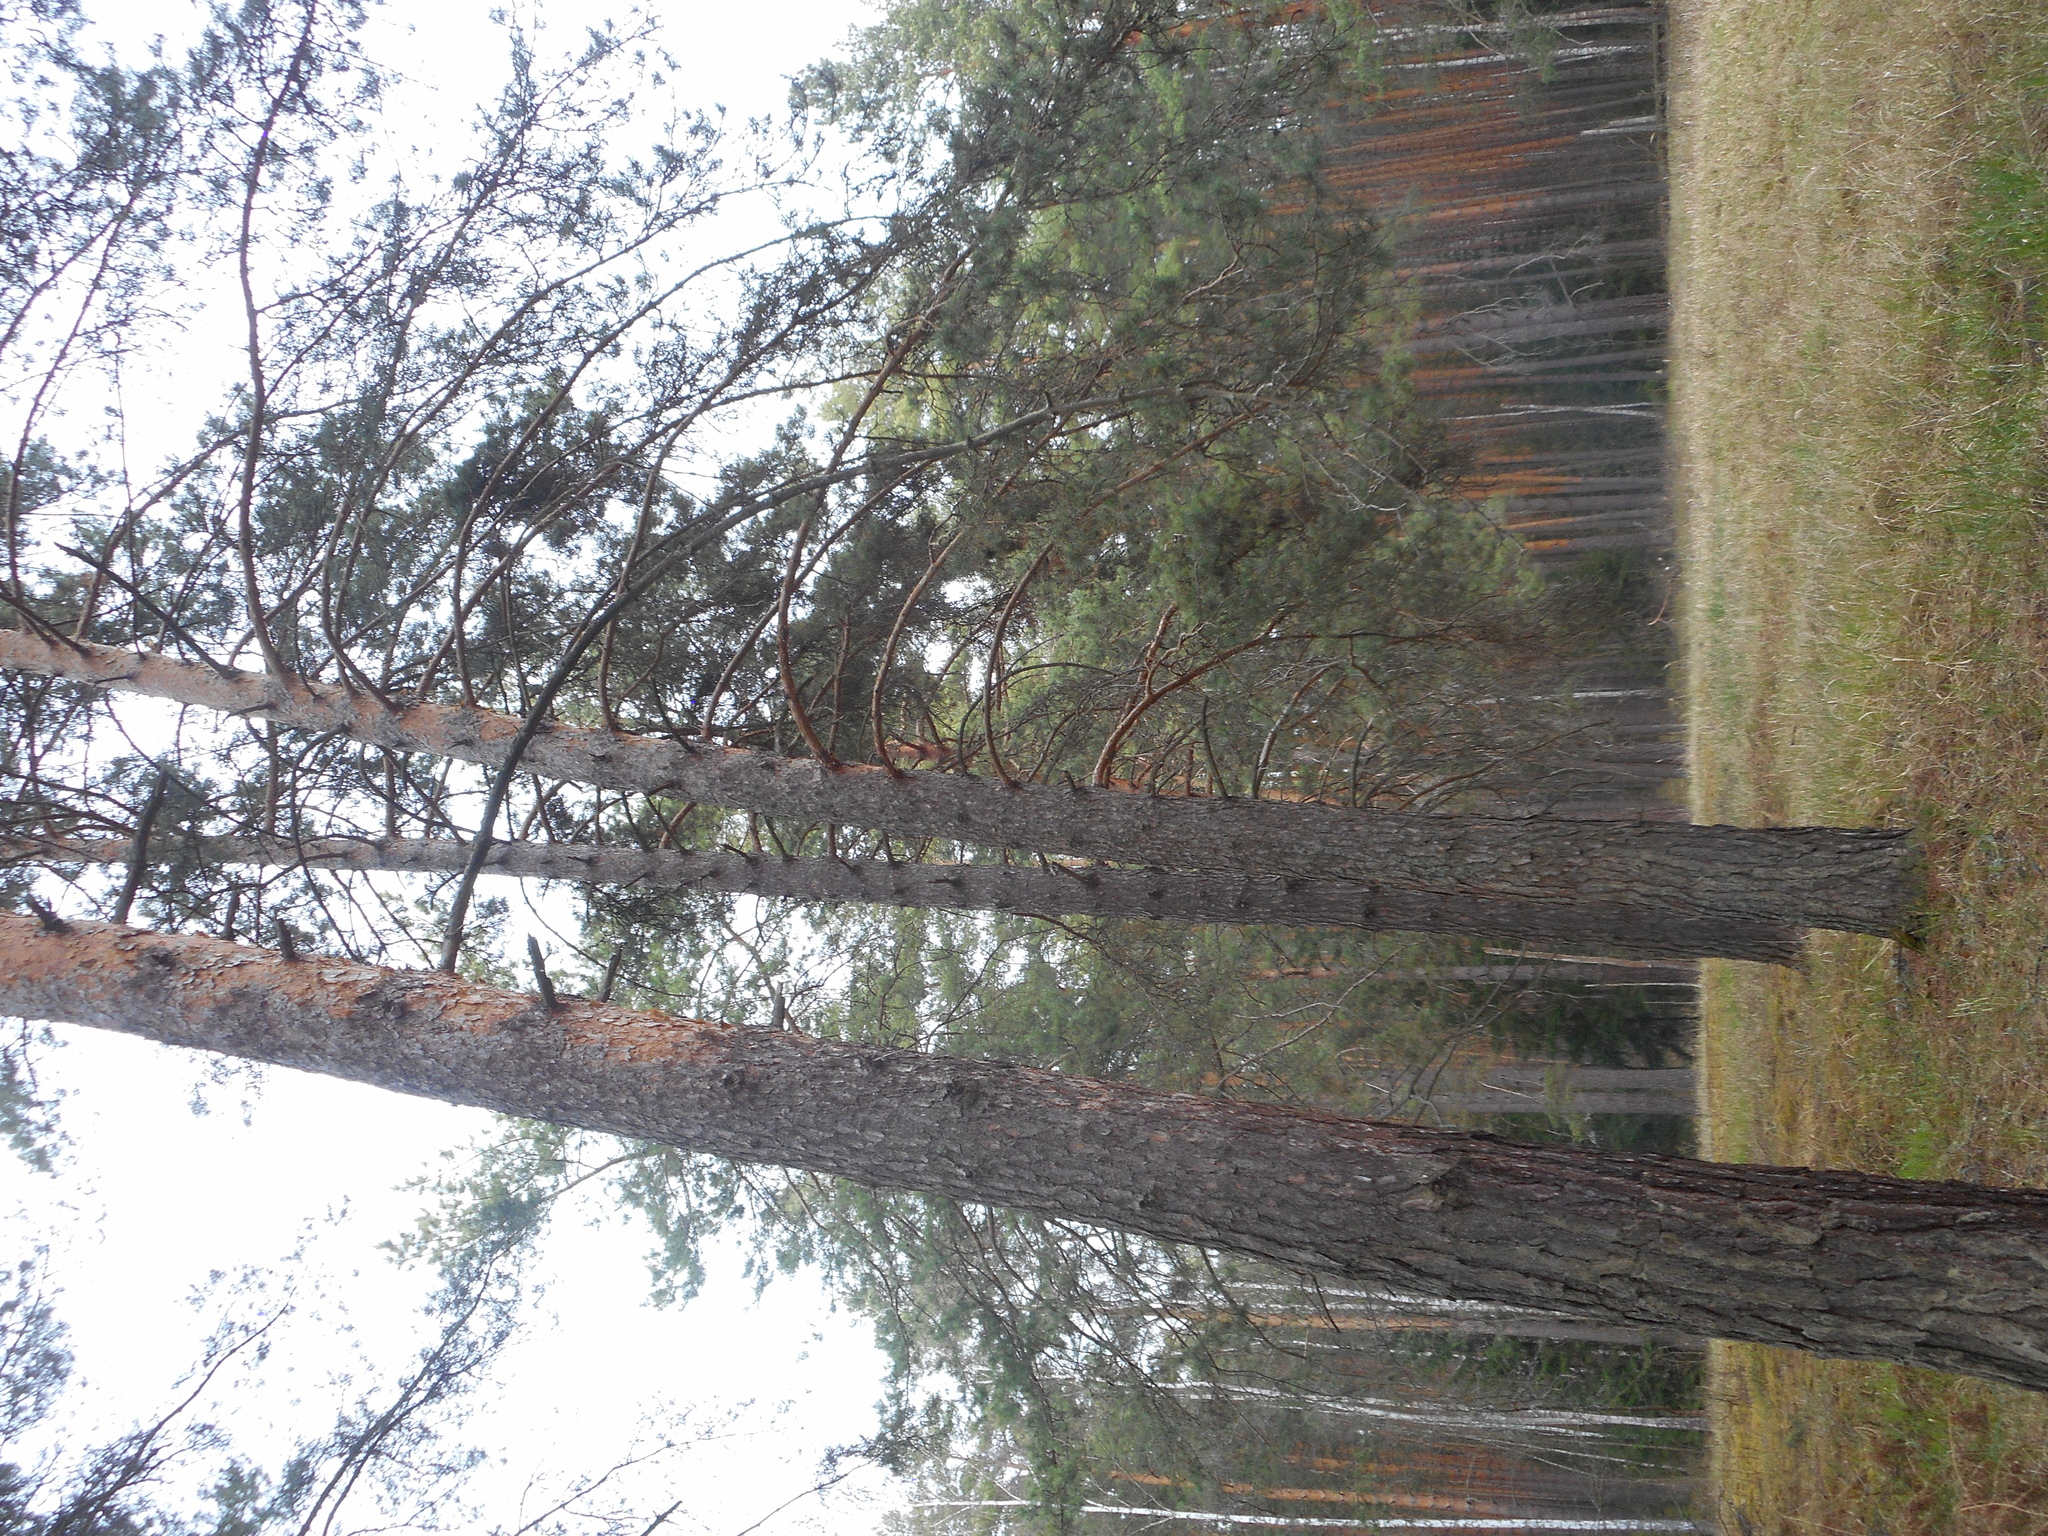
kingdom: Plantae
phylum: Tracheophyta
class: Pinopsida
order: Pinales
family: Pinaceae
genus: Pinus
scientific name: Pinus sylvestris
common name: Scots pine
